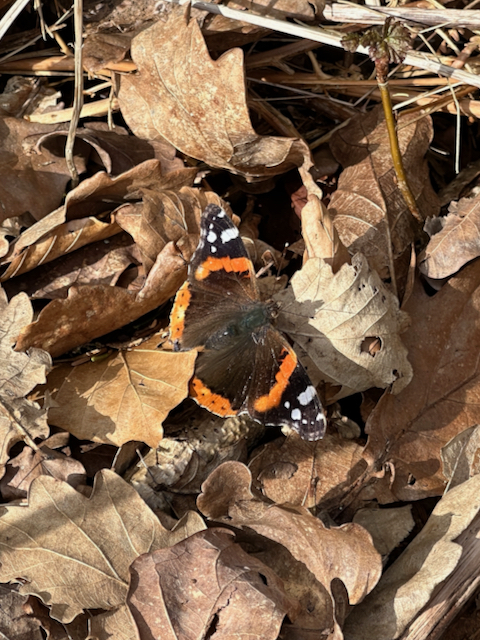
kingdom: Animalia
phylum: Arthropoda
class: Insecta
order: Lepidoptera
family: Nymphalidae
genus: Vanessa
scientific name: Vanessa atalanta
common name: Red admiral
